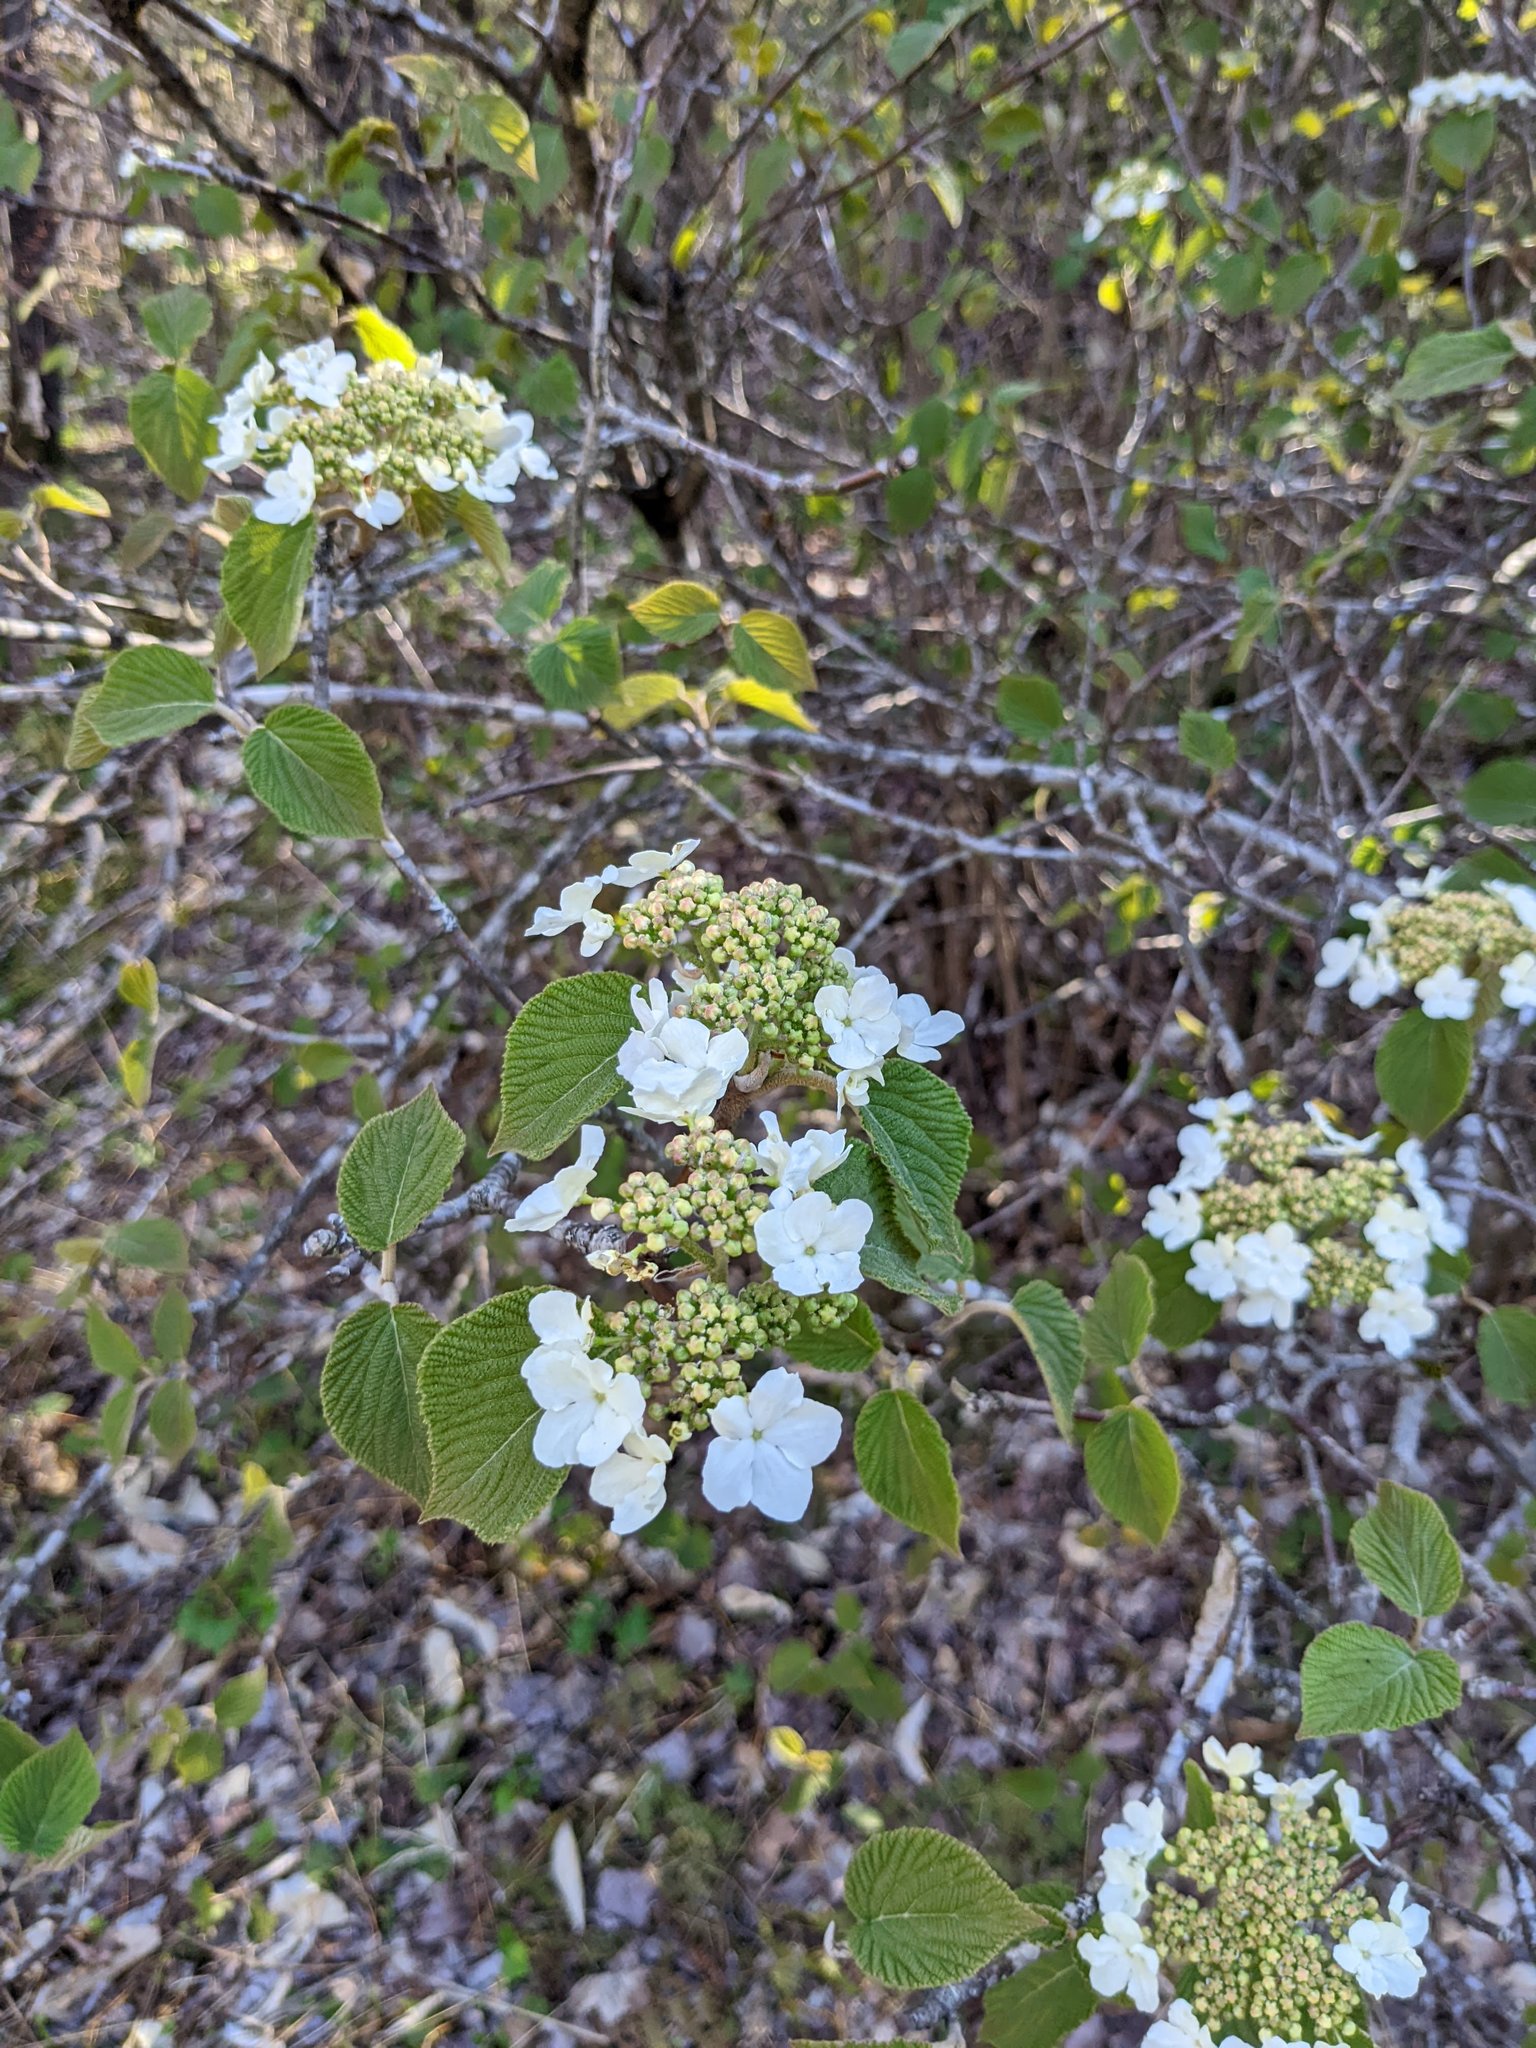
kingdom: Plantae
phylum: Tracheophyta
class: Magnoliopsida
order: Dipsacales
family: Viburnaceae
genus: Viburnum
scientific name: Viburnum lantanoides
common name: Hobblebush
